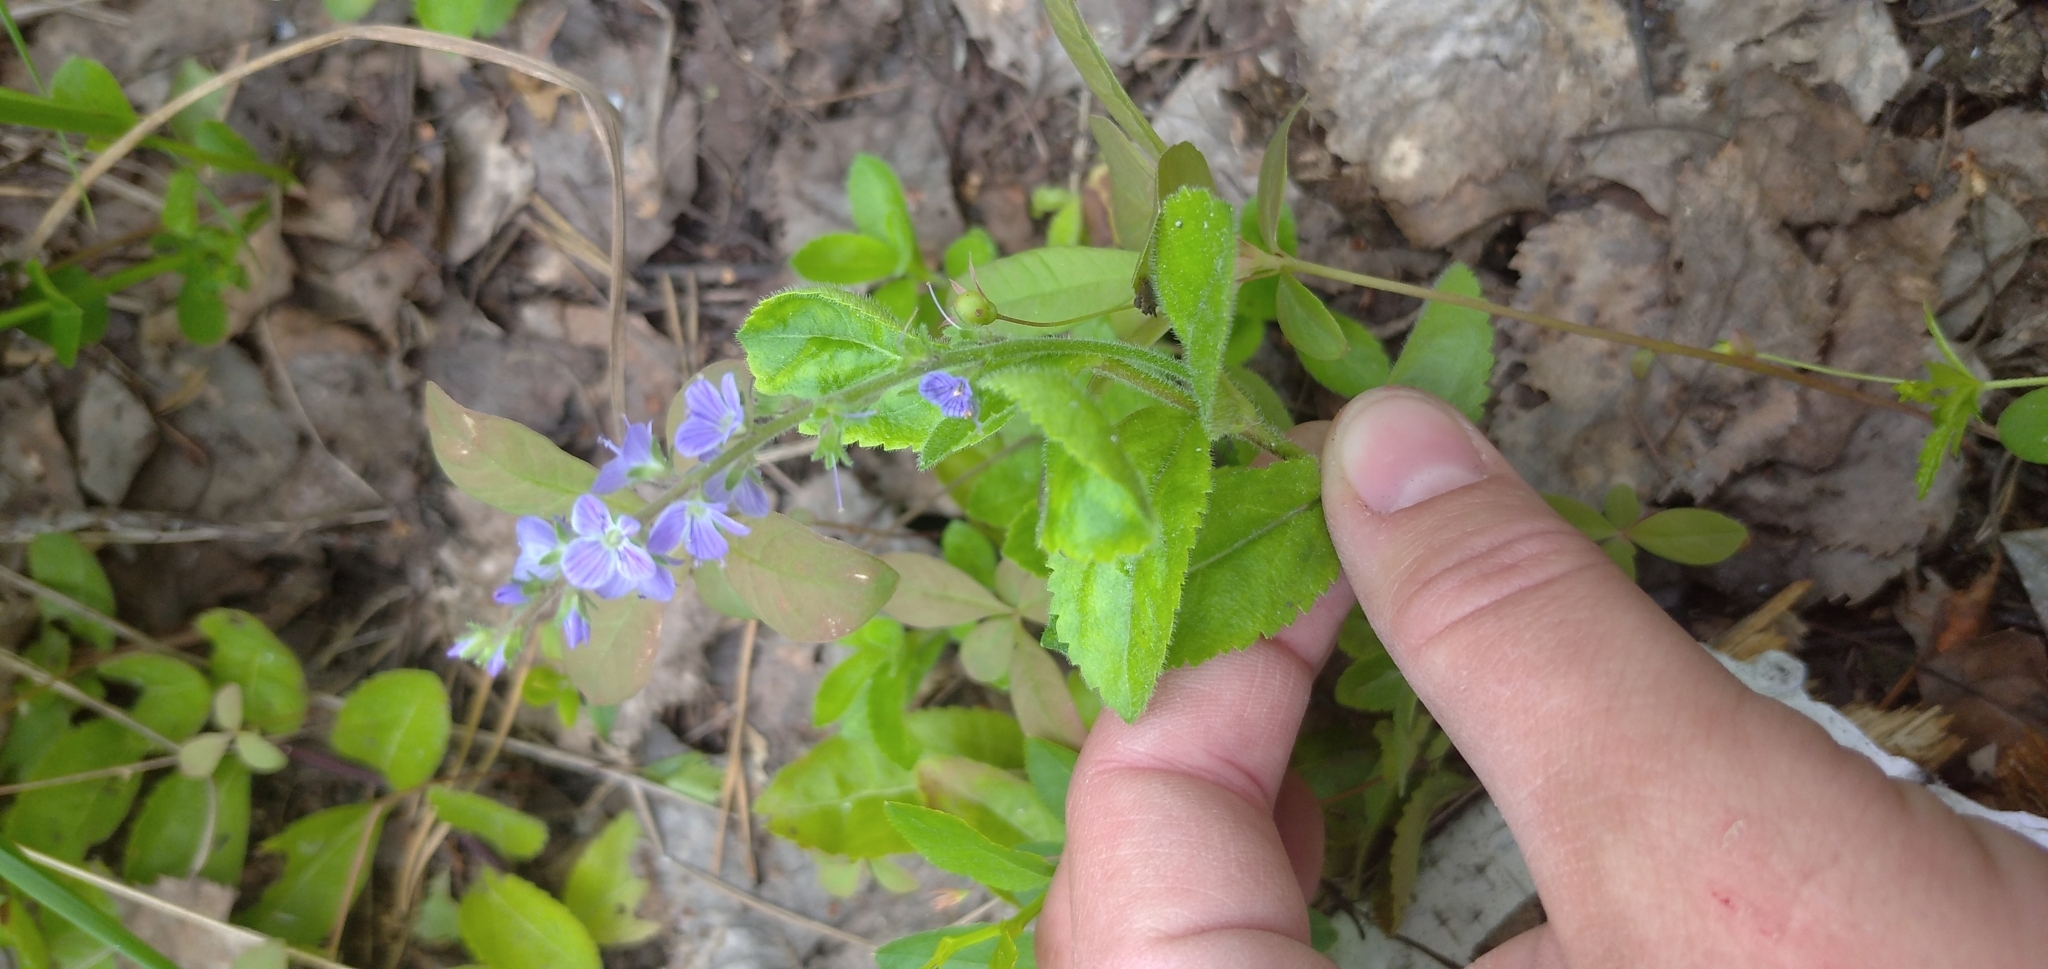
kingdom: Plantae
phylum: Tracheophyta
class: Magnoliopsida
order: Lamiales
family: Plantaginaceae
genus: Veronica
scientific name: Veronica officinalis
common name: Common speedwell
